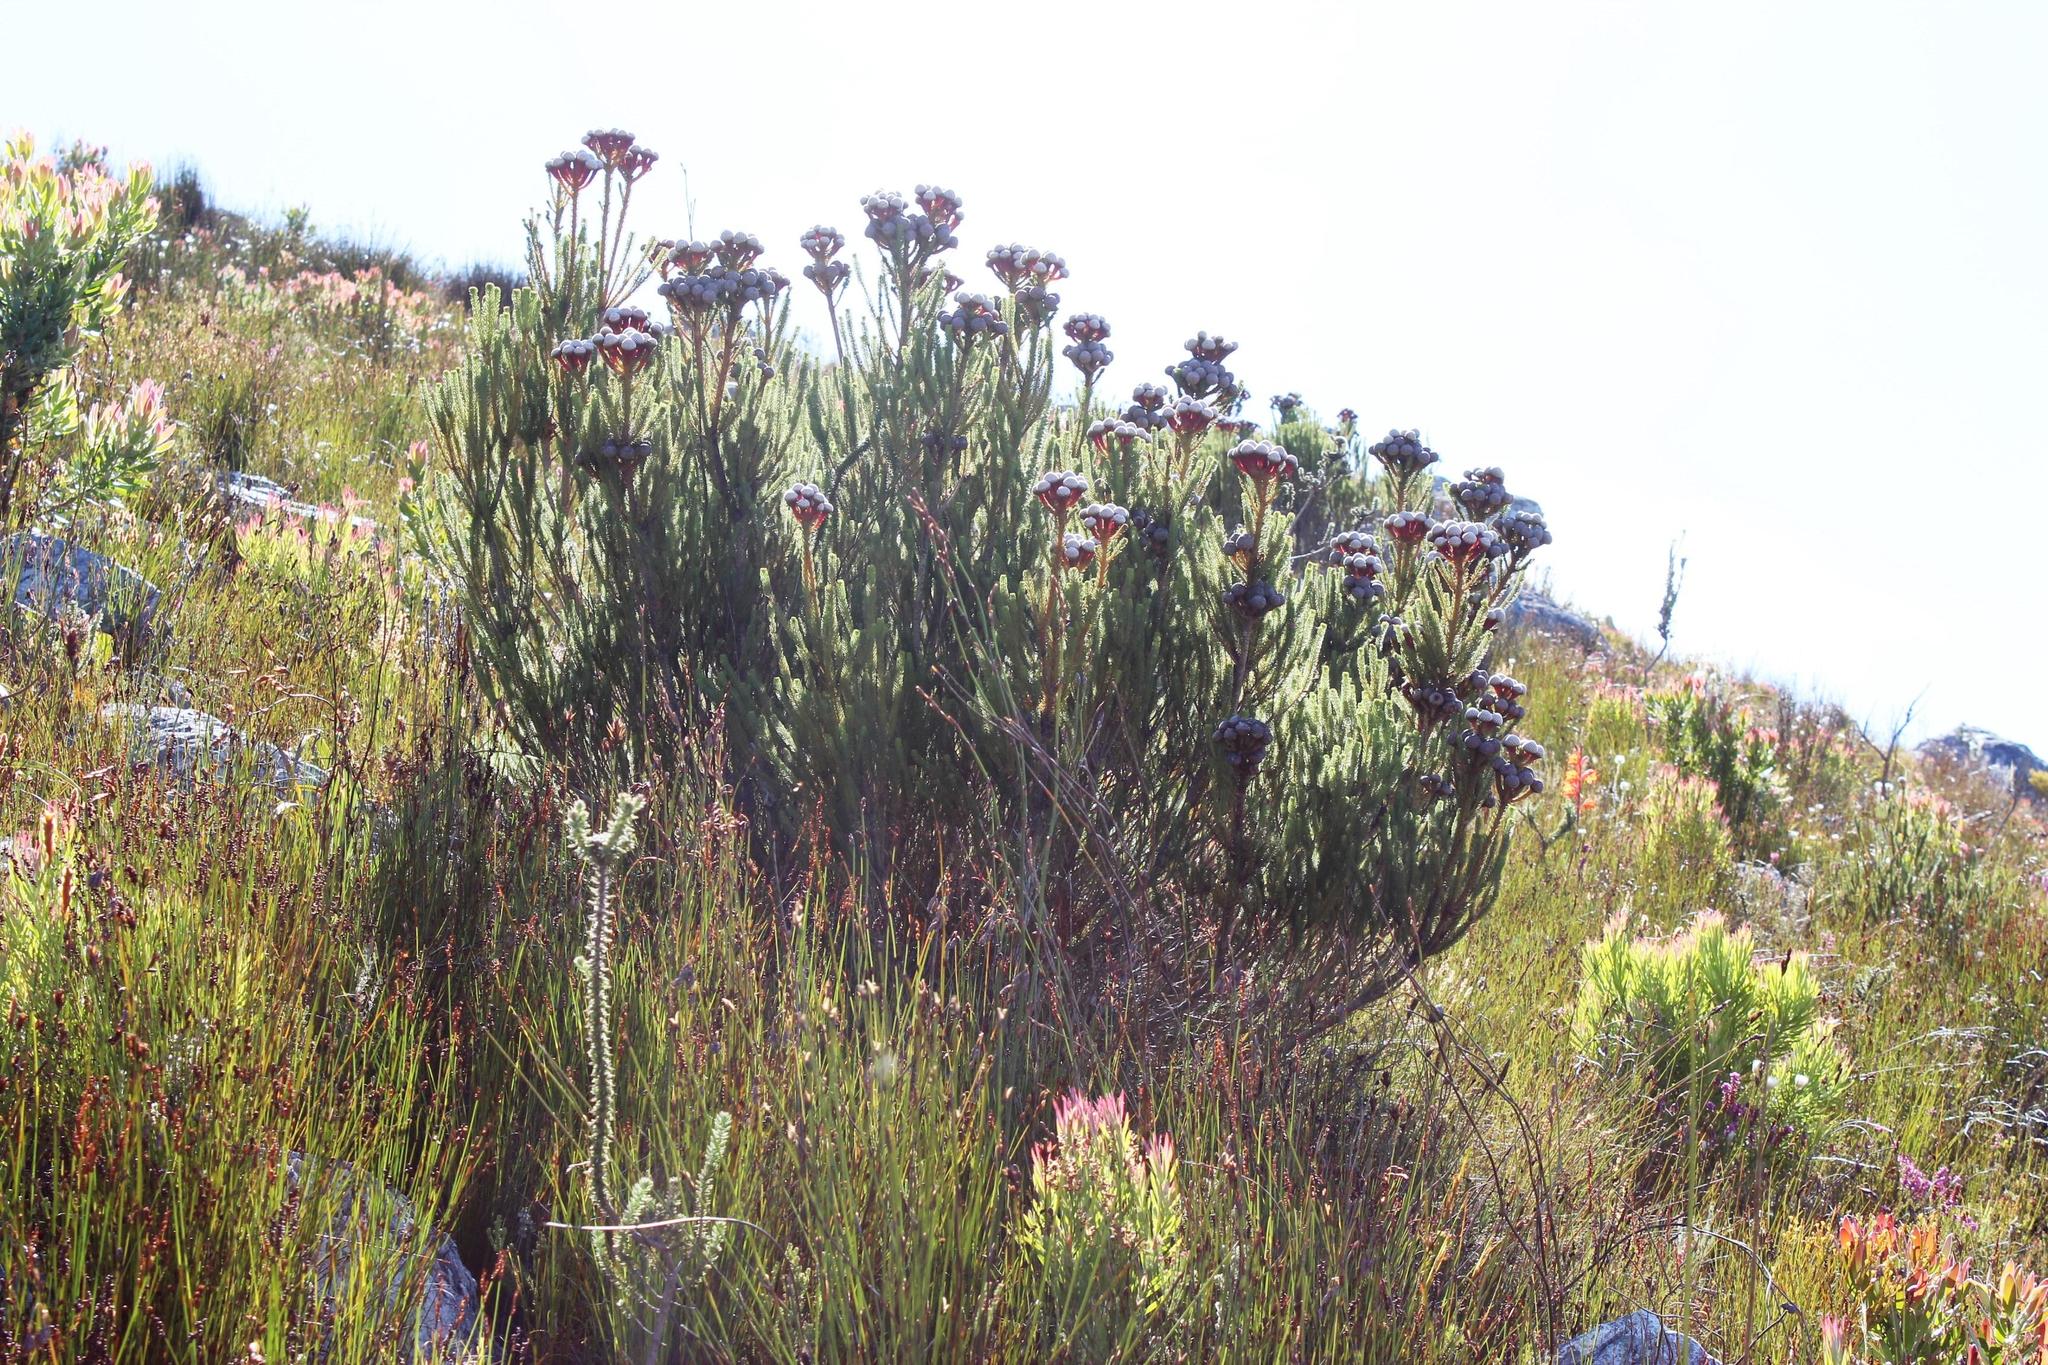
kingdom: Plantae
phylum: Tracheophyta
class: Magnoliopsida
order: Bruniales
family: Bruniaceae
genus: Berzelia
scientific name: Berzelia stokoei
